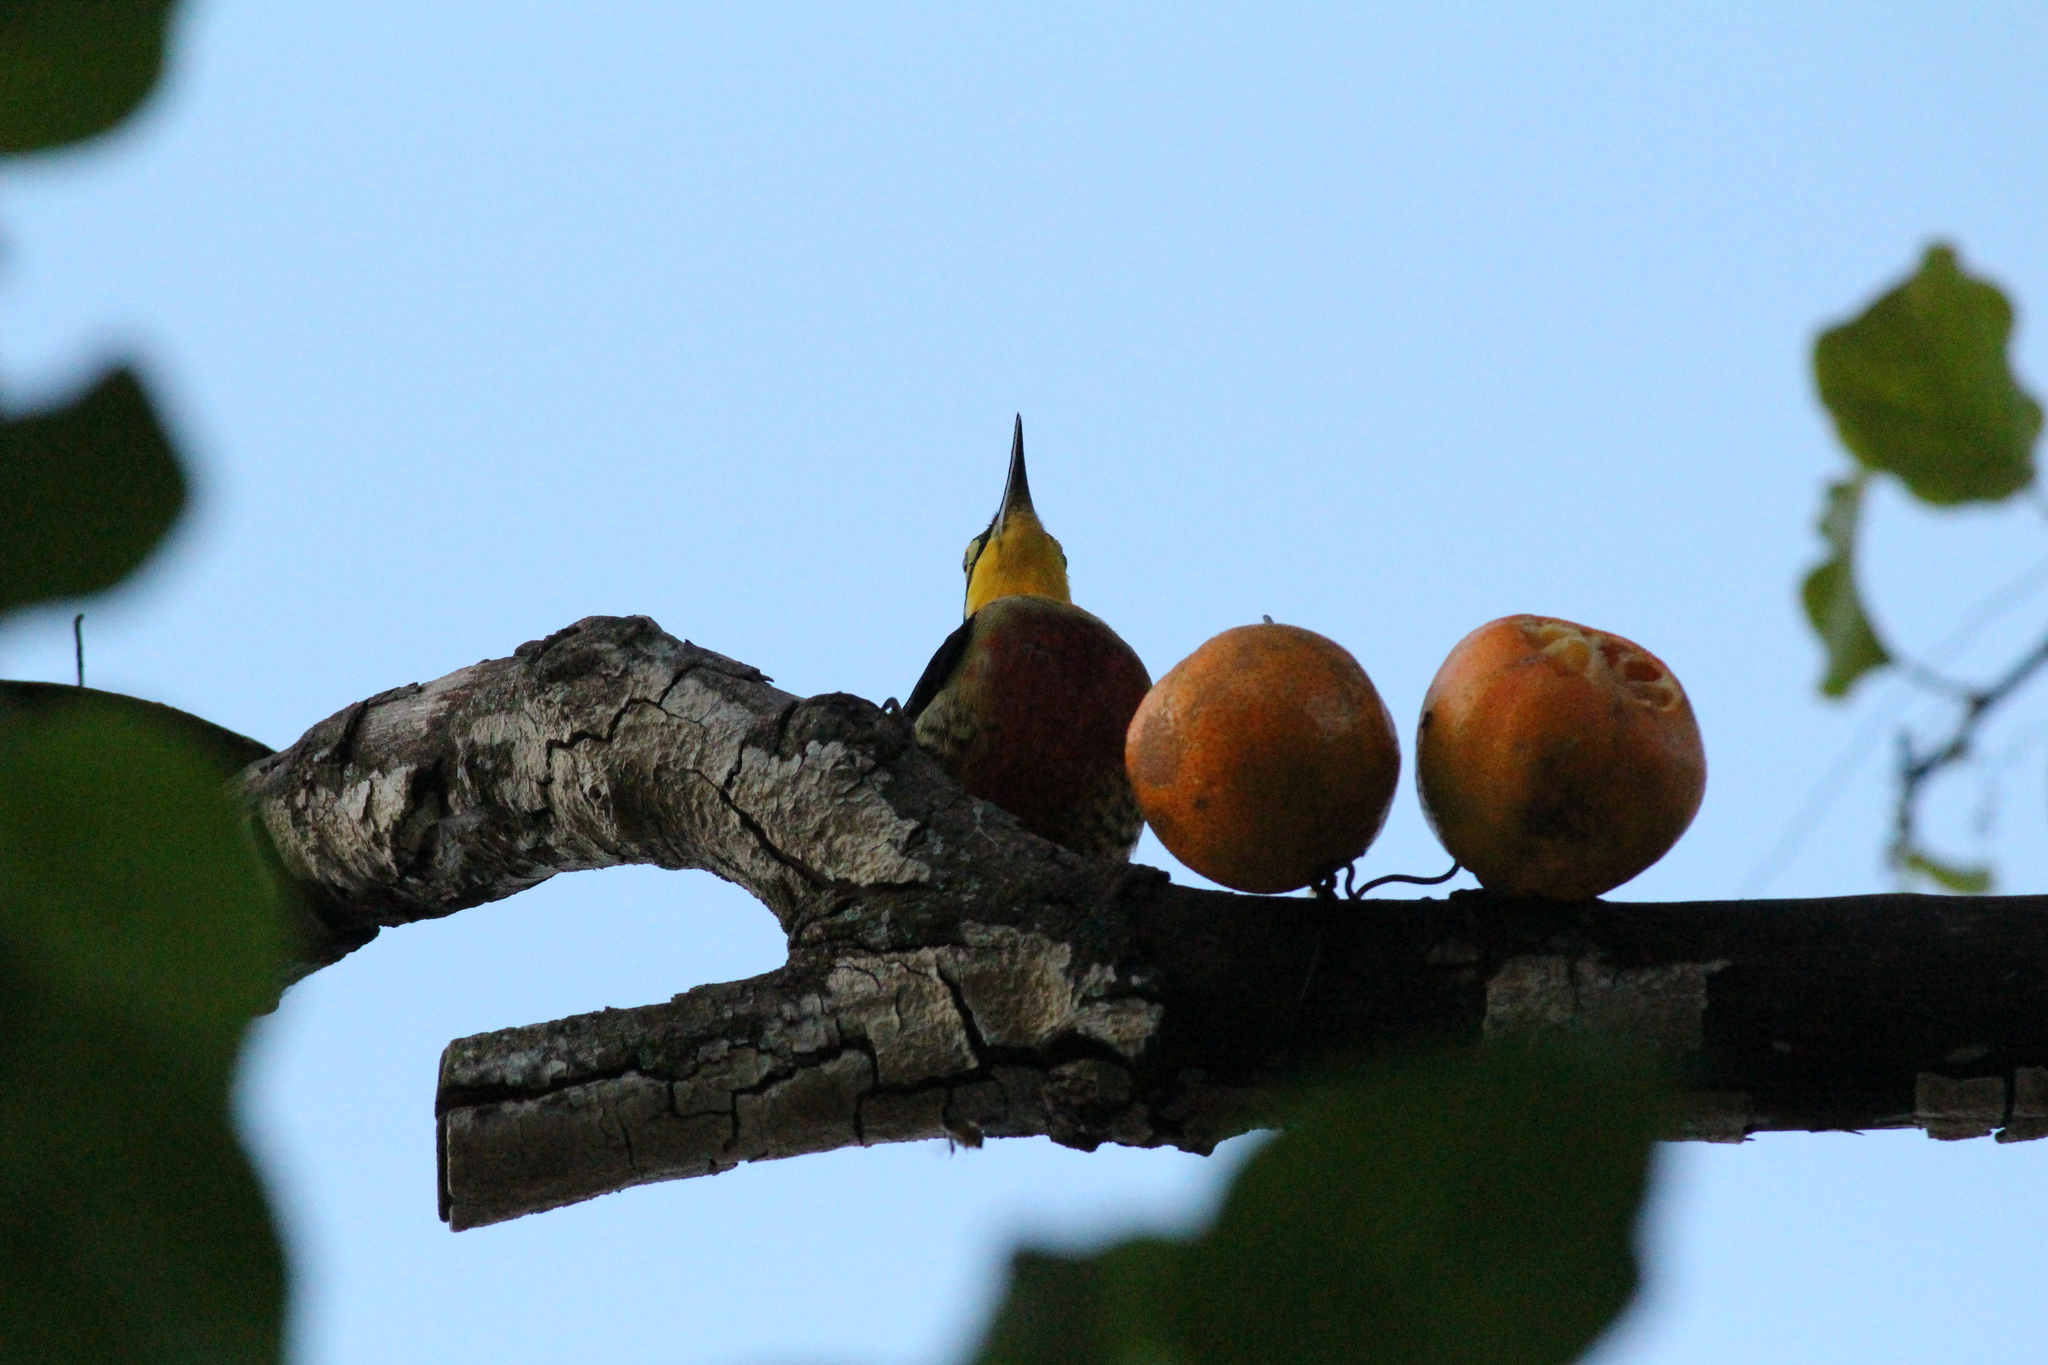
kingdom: Animalia
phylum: Chordata
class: Aves
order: Piciformes
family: Picidae
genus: Melanerpes
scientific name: Melanerpes flavifrons
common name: Yellow-fronted woodpecker
